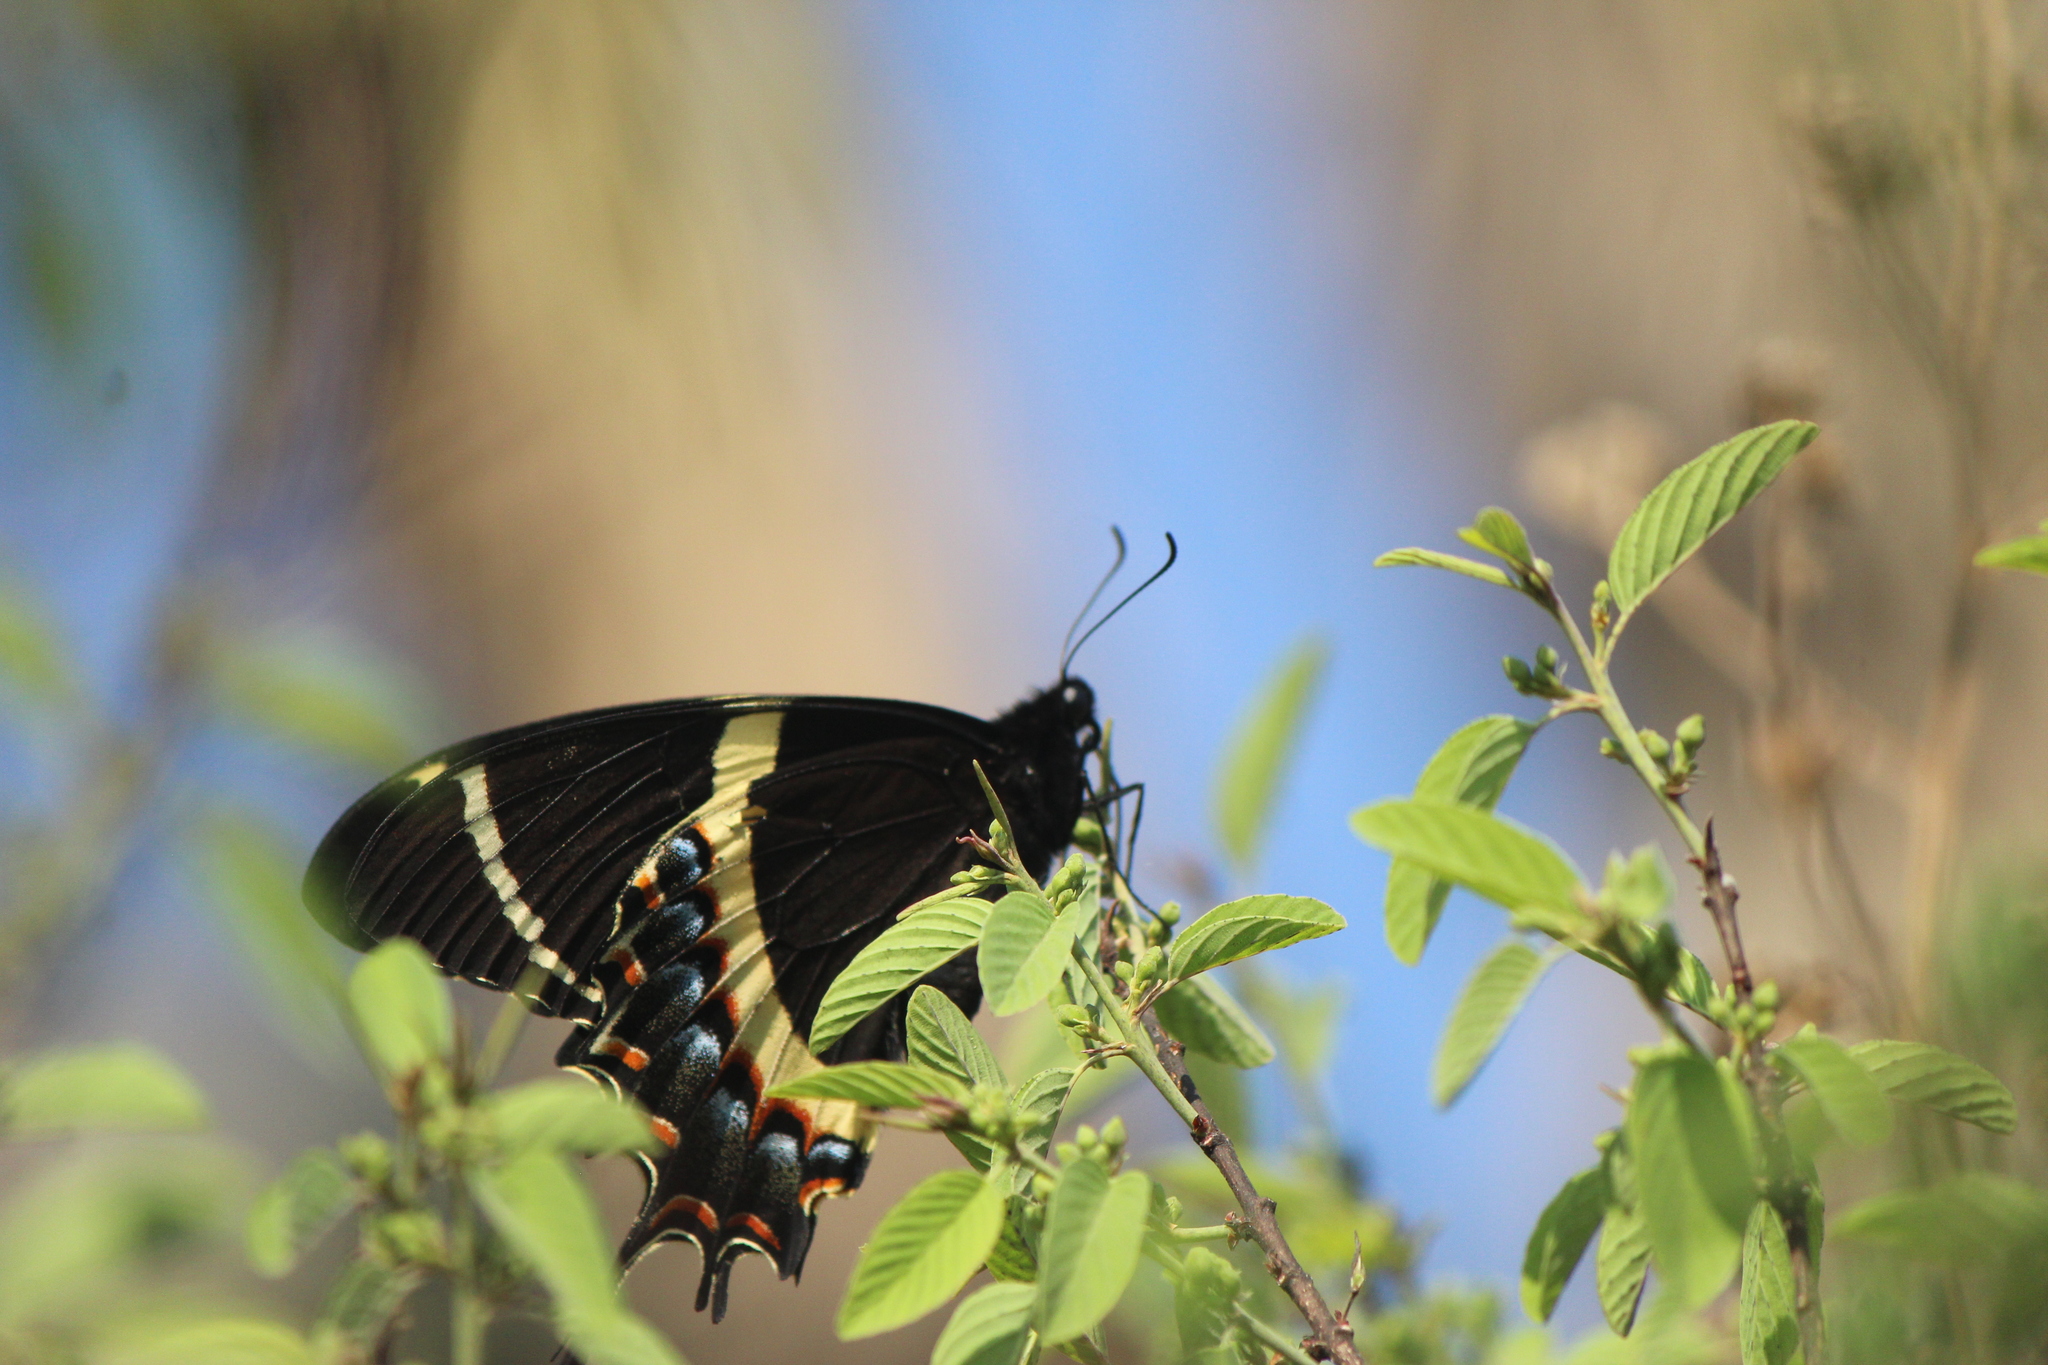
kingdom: Animalia
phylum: Arthropoda
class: Insecta
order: Lepidoptera
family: Papilionidae
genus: Papilio
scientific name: Papilio garamas
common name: Magnificent swallowtail
